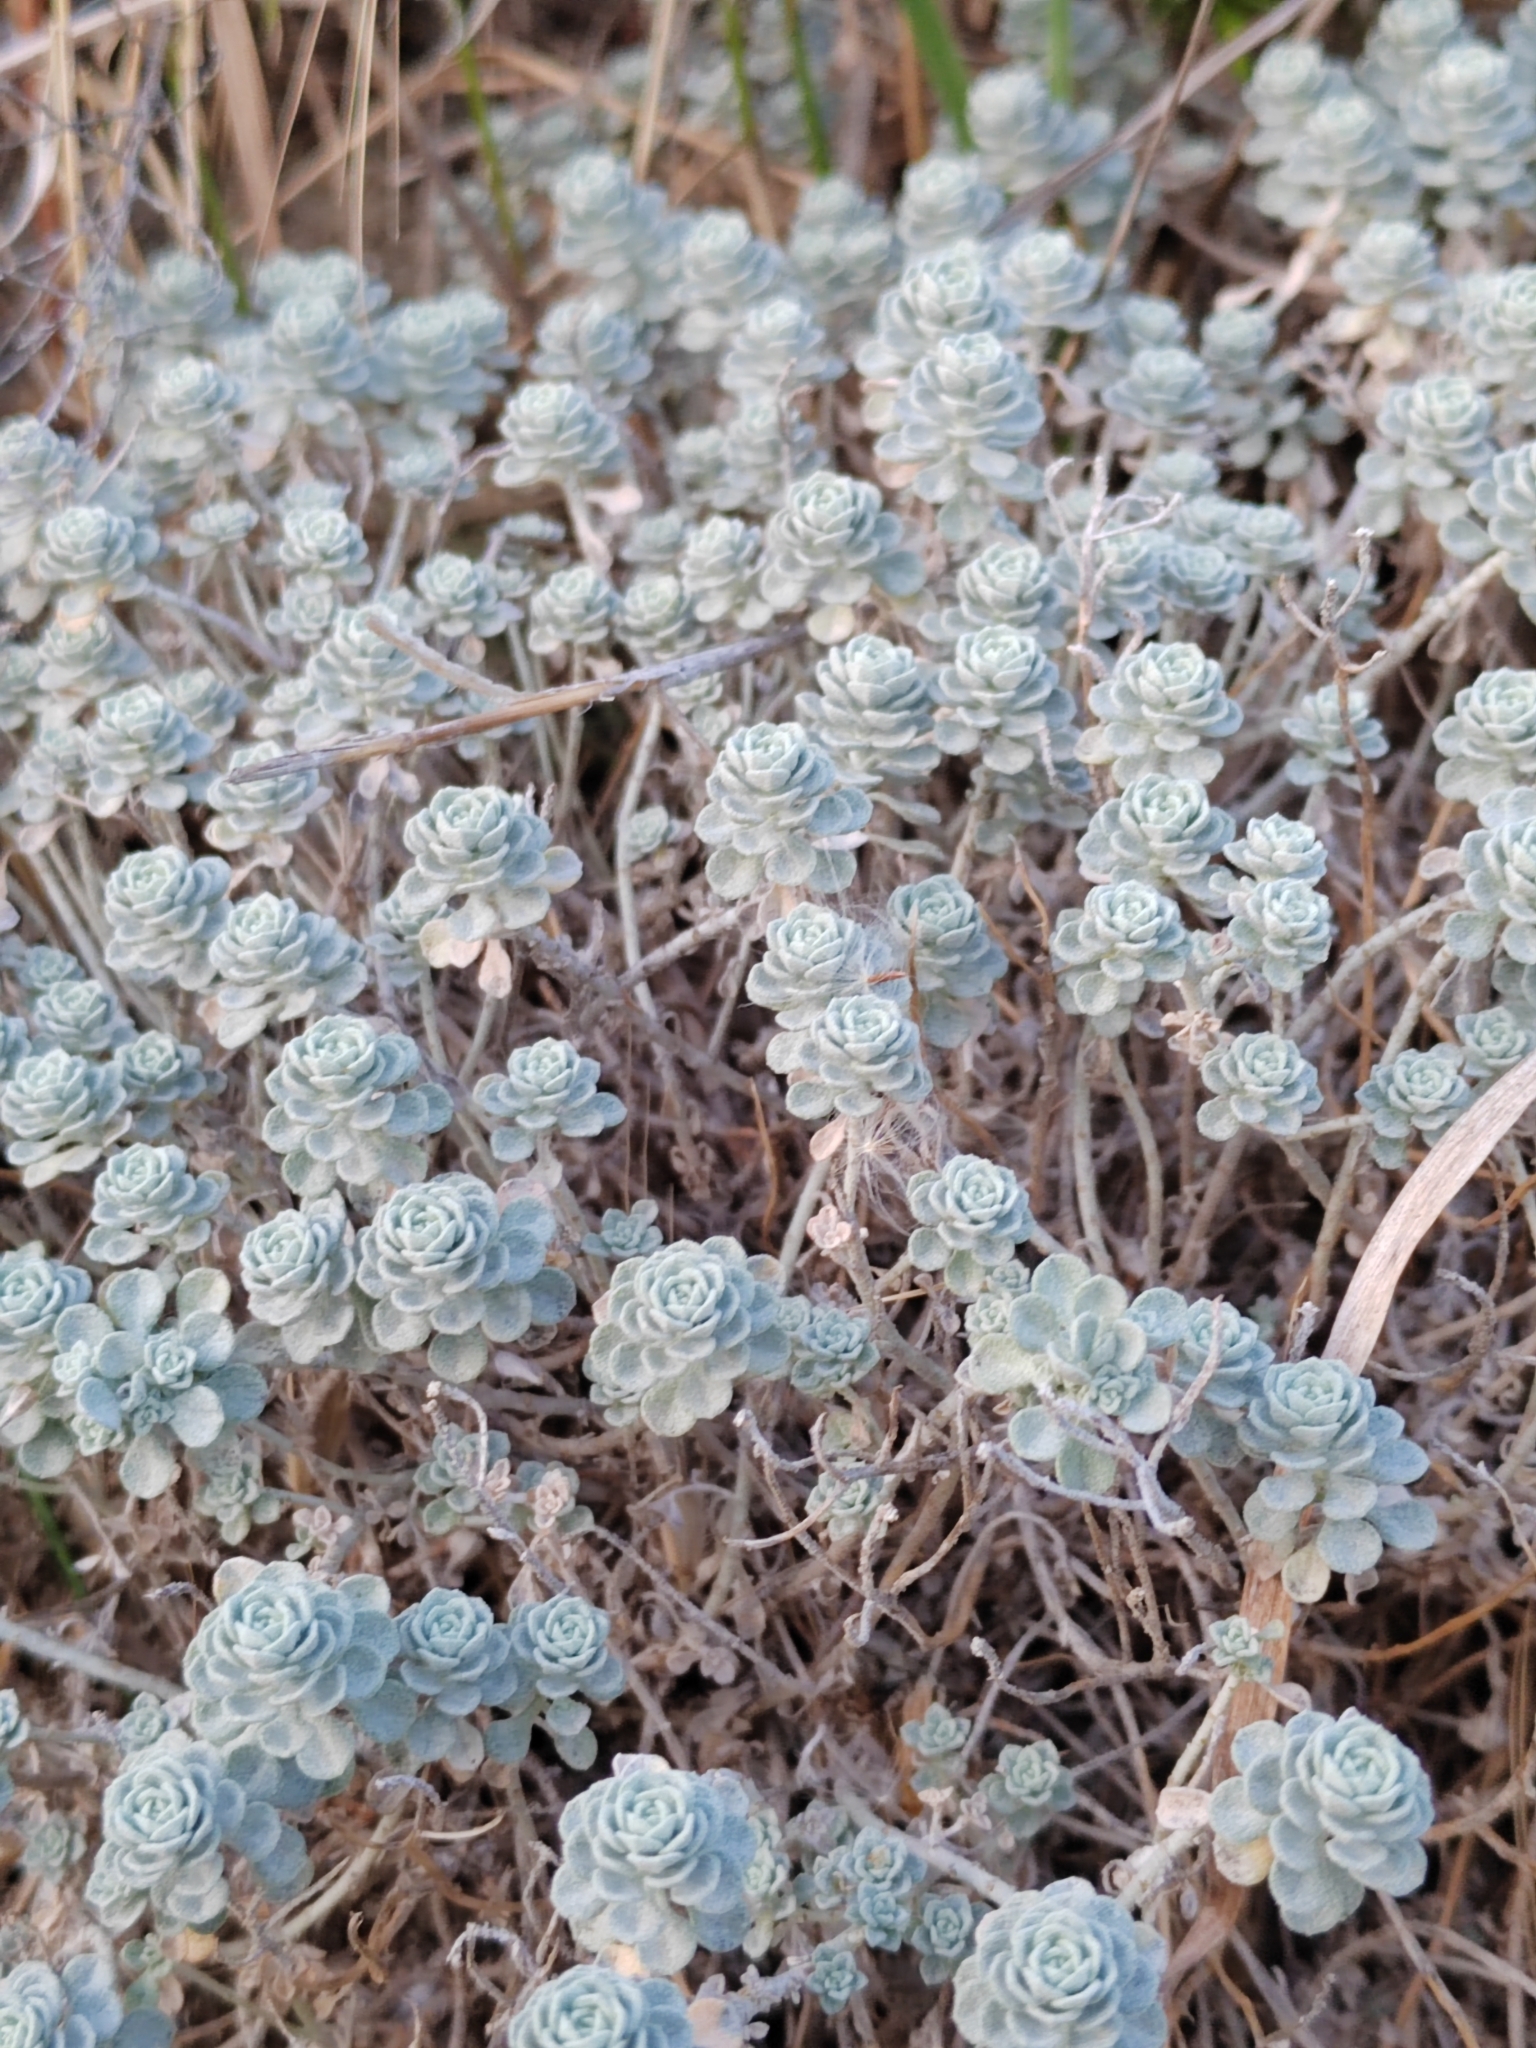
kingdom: Plantae
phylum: Tracheophyta
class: Magnoliopsida
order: Brassicales
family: Brassicaceae
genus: Odontarrhena
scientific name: Odontarrhena obtusifolia
